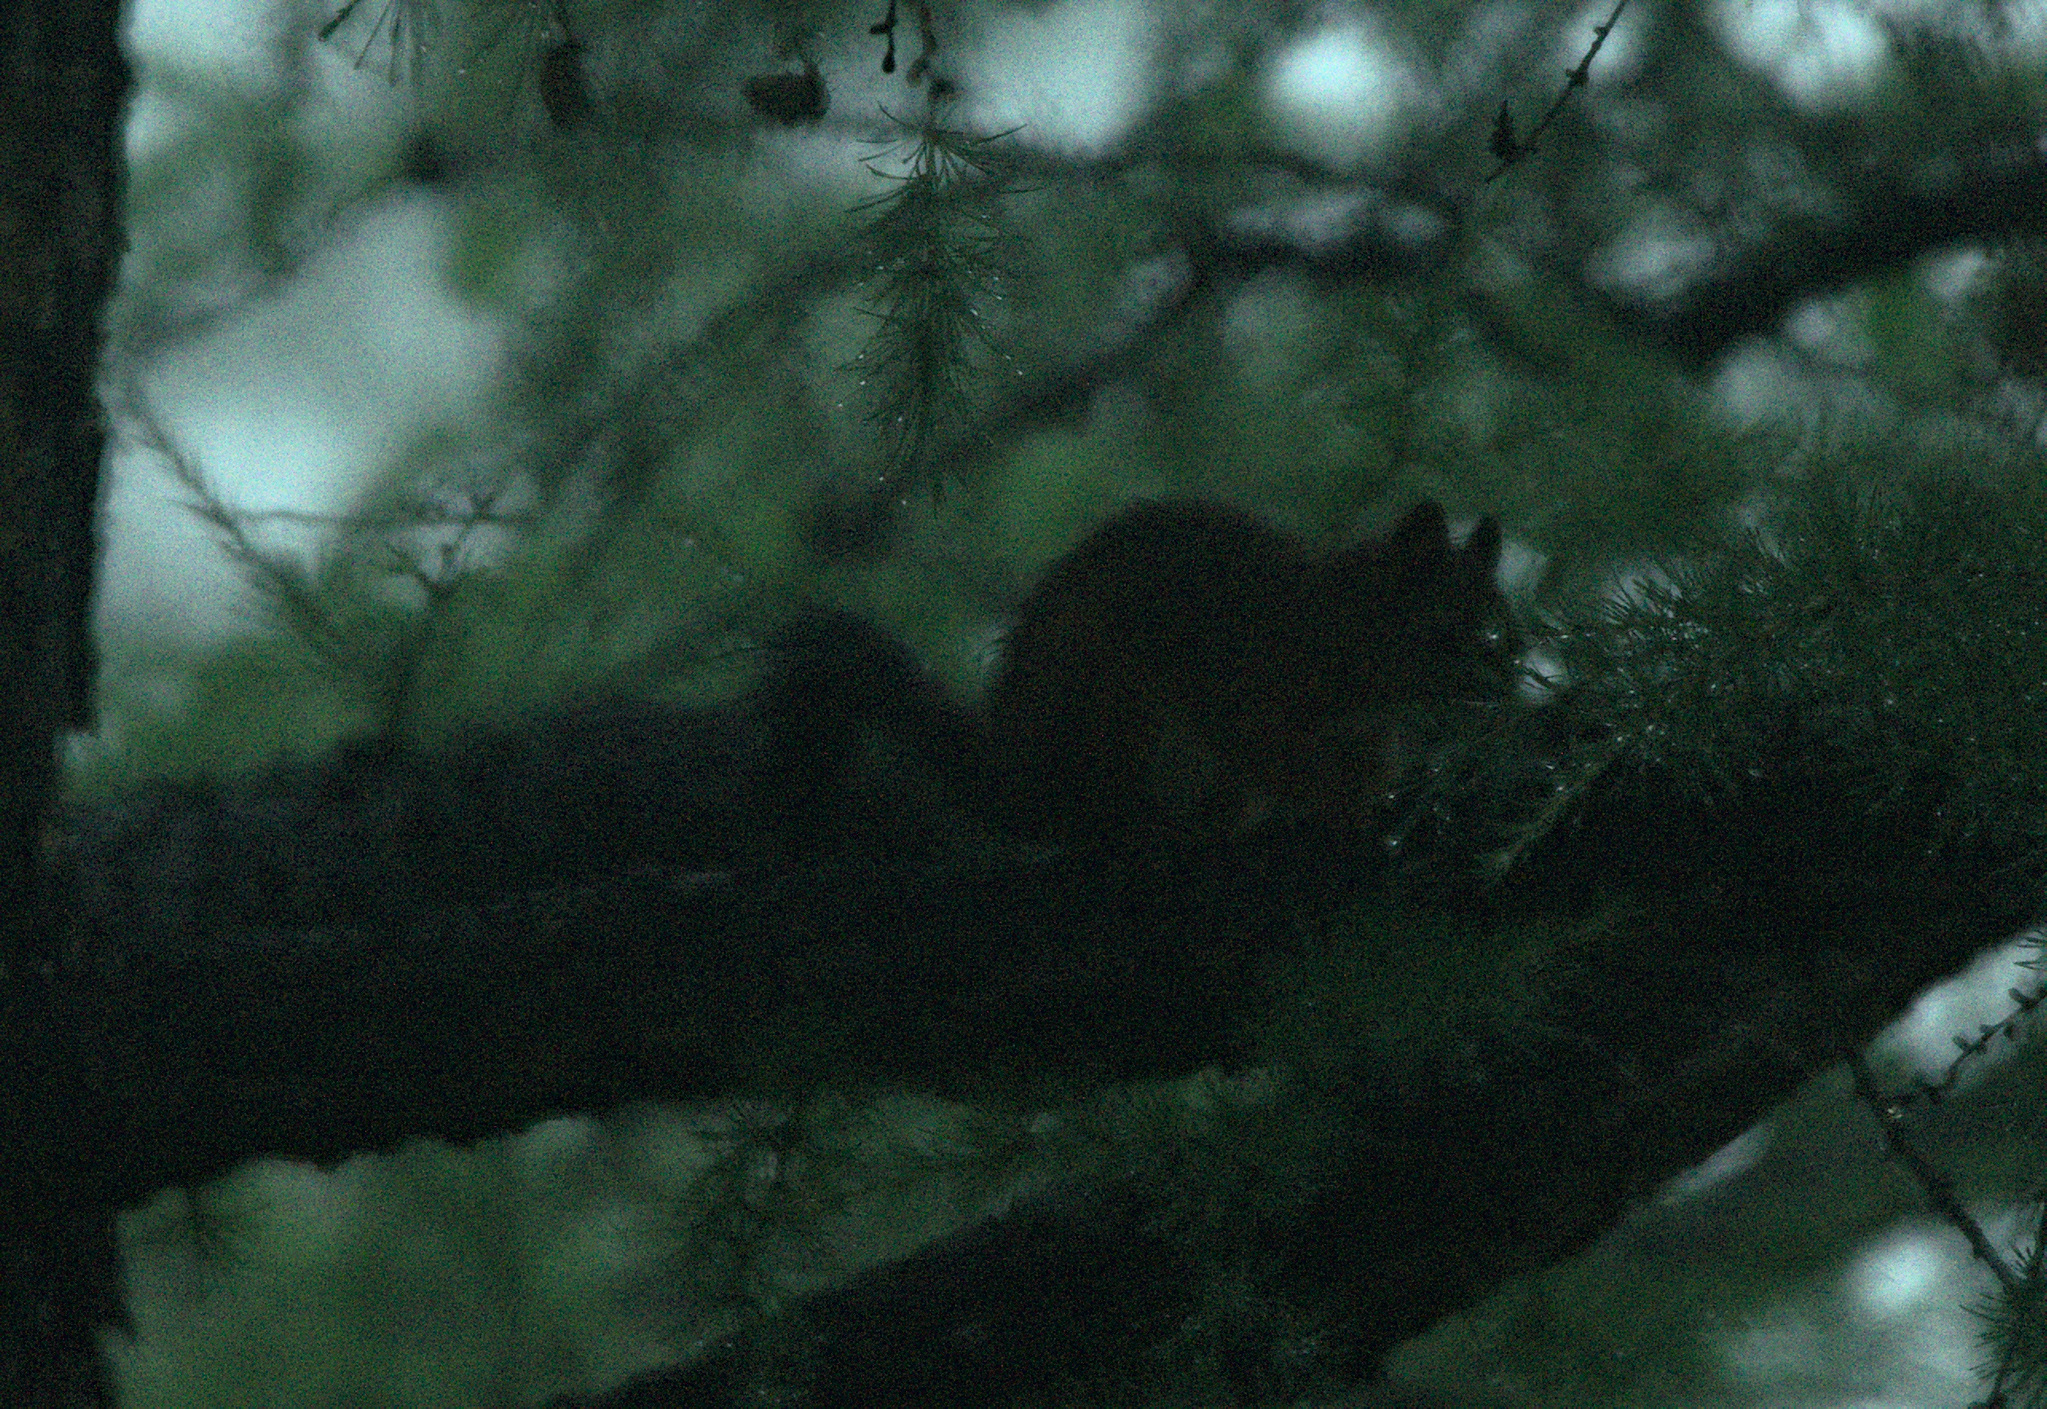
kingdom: Animalia
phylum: Chordata
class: Mammalia
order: Rodentia
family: Sciuridae
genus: Sciurus
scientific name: Sciurus vulgaris
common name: Eurasian red squirrel
